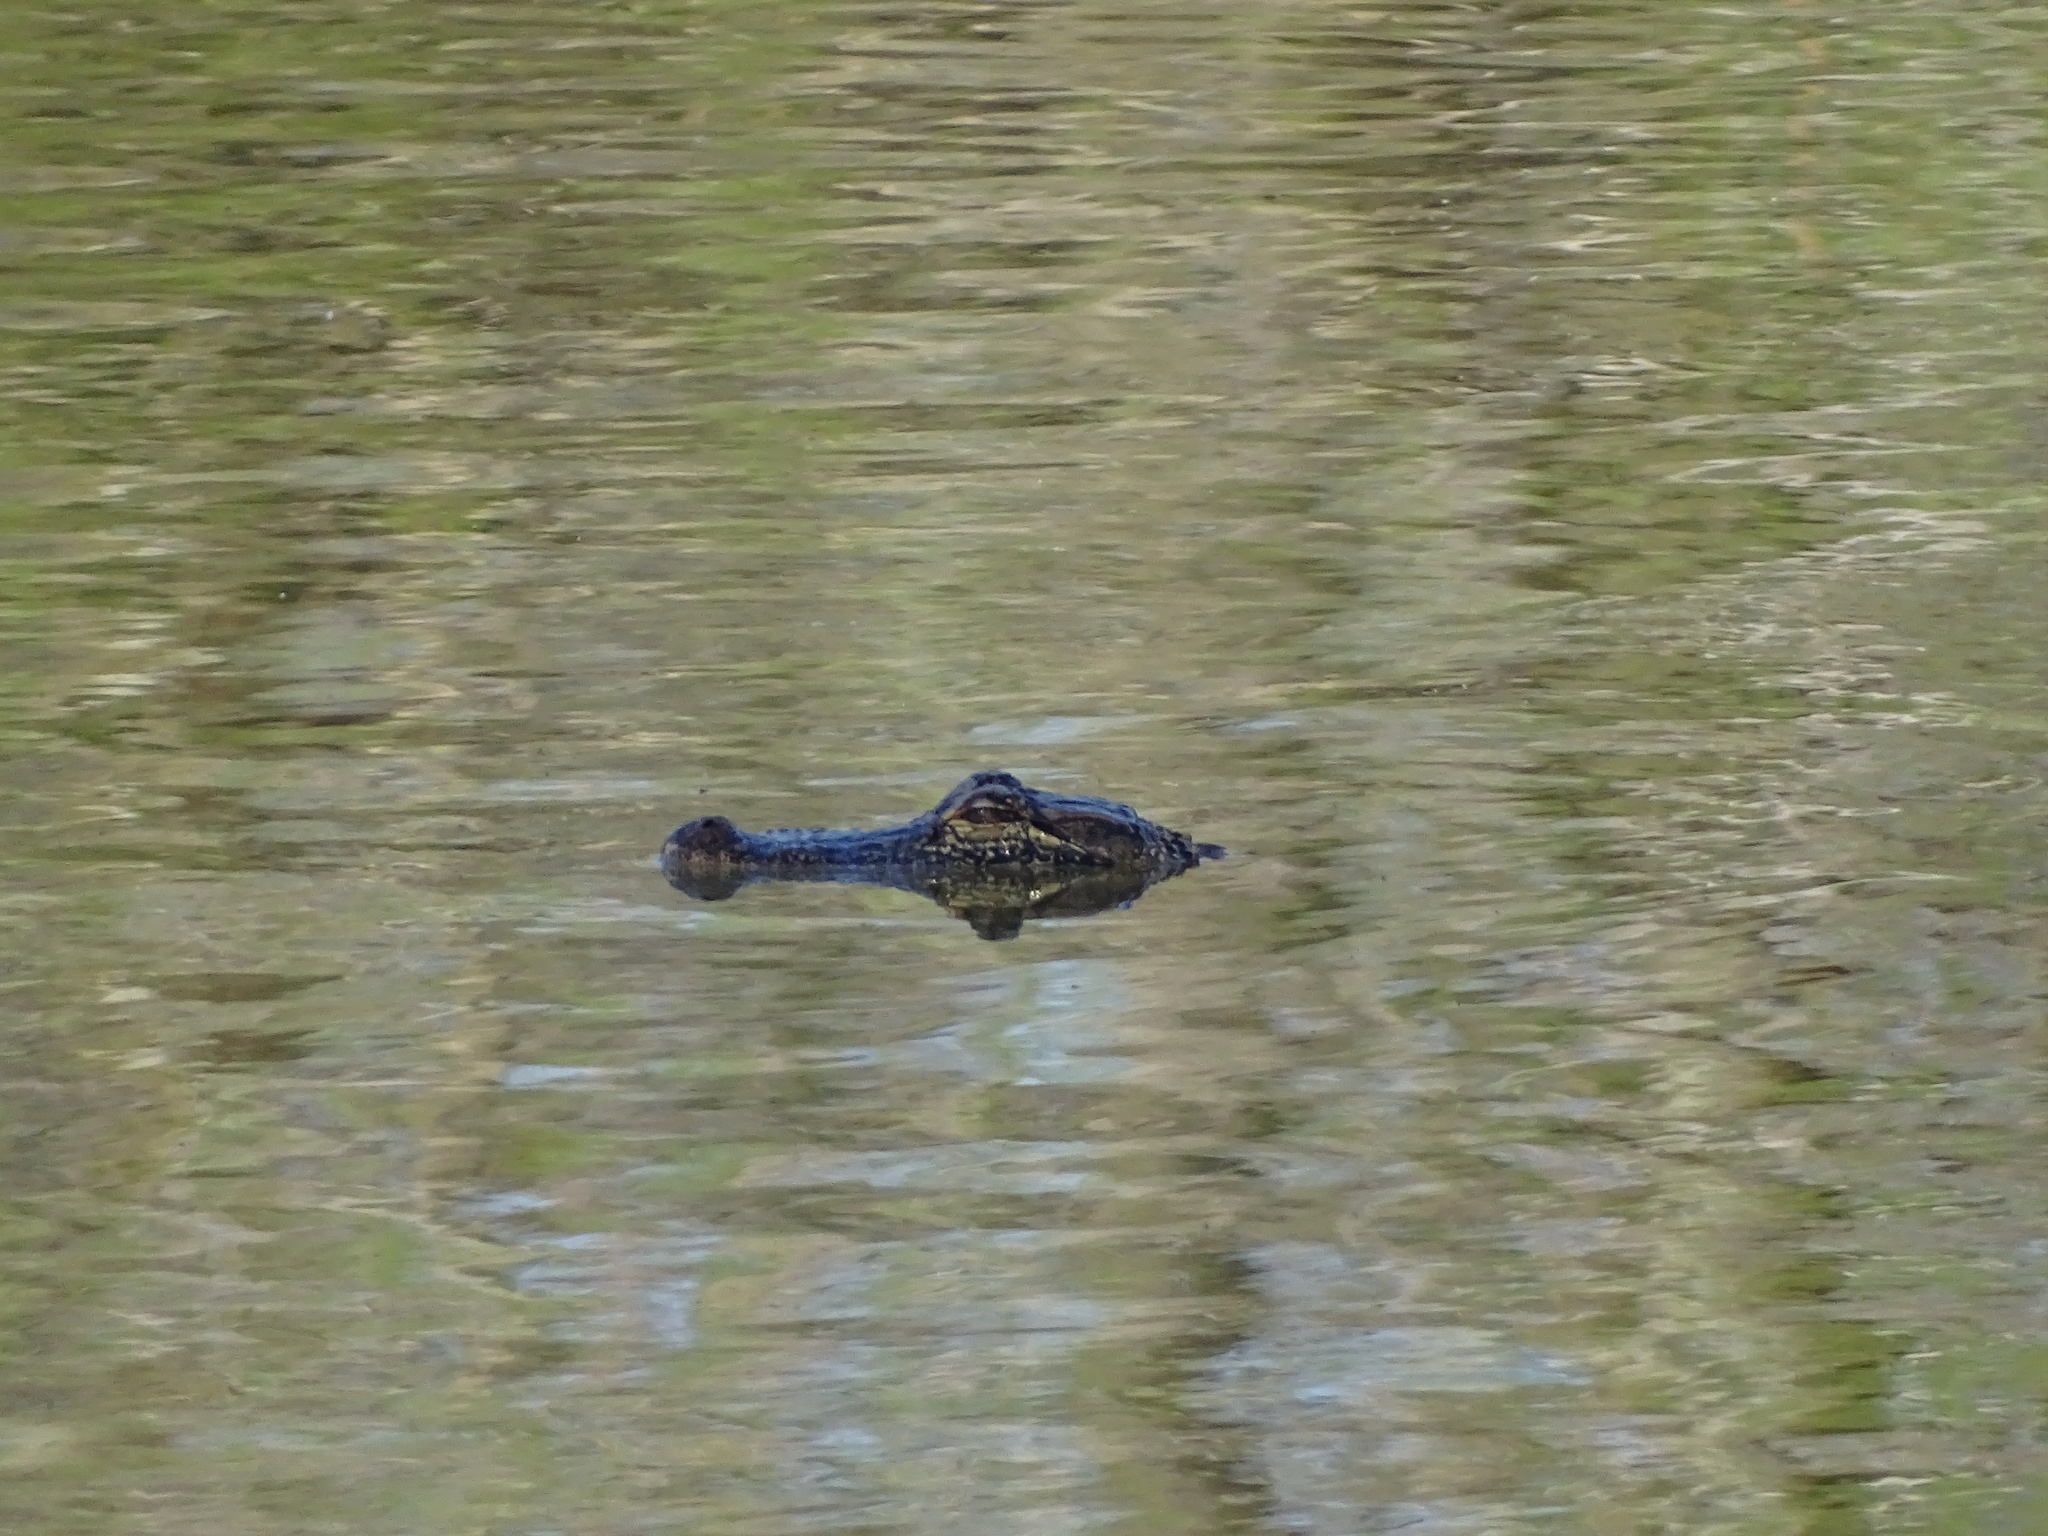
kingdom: Animalia
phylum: Chordata
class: Crocodylia
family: Alligatoridae
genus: Alligator
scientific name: Alligator mississippiensis
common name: American alligator
